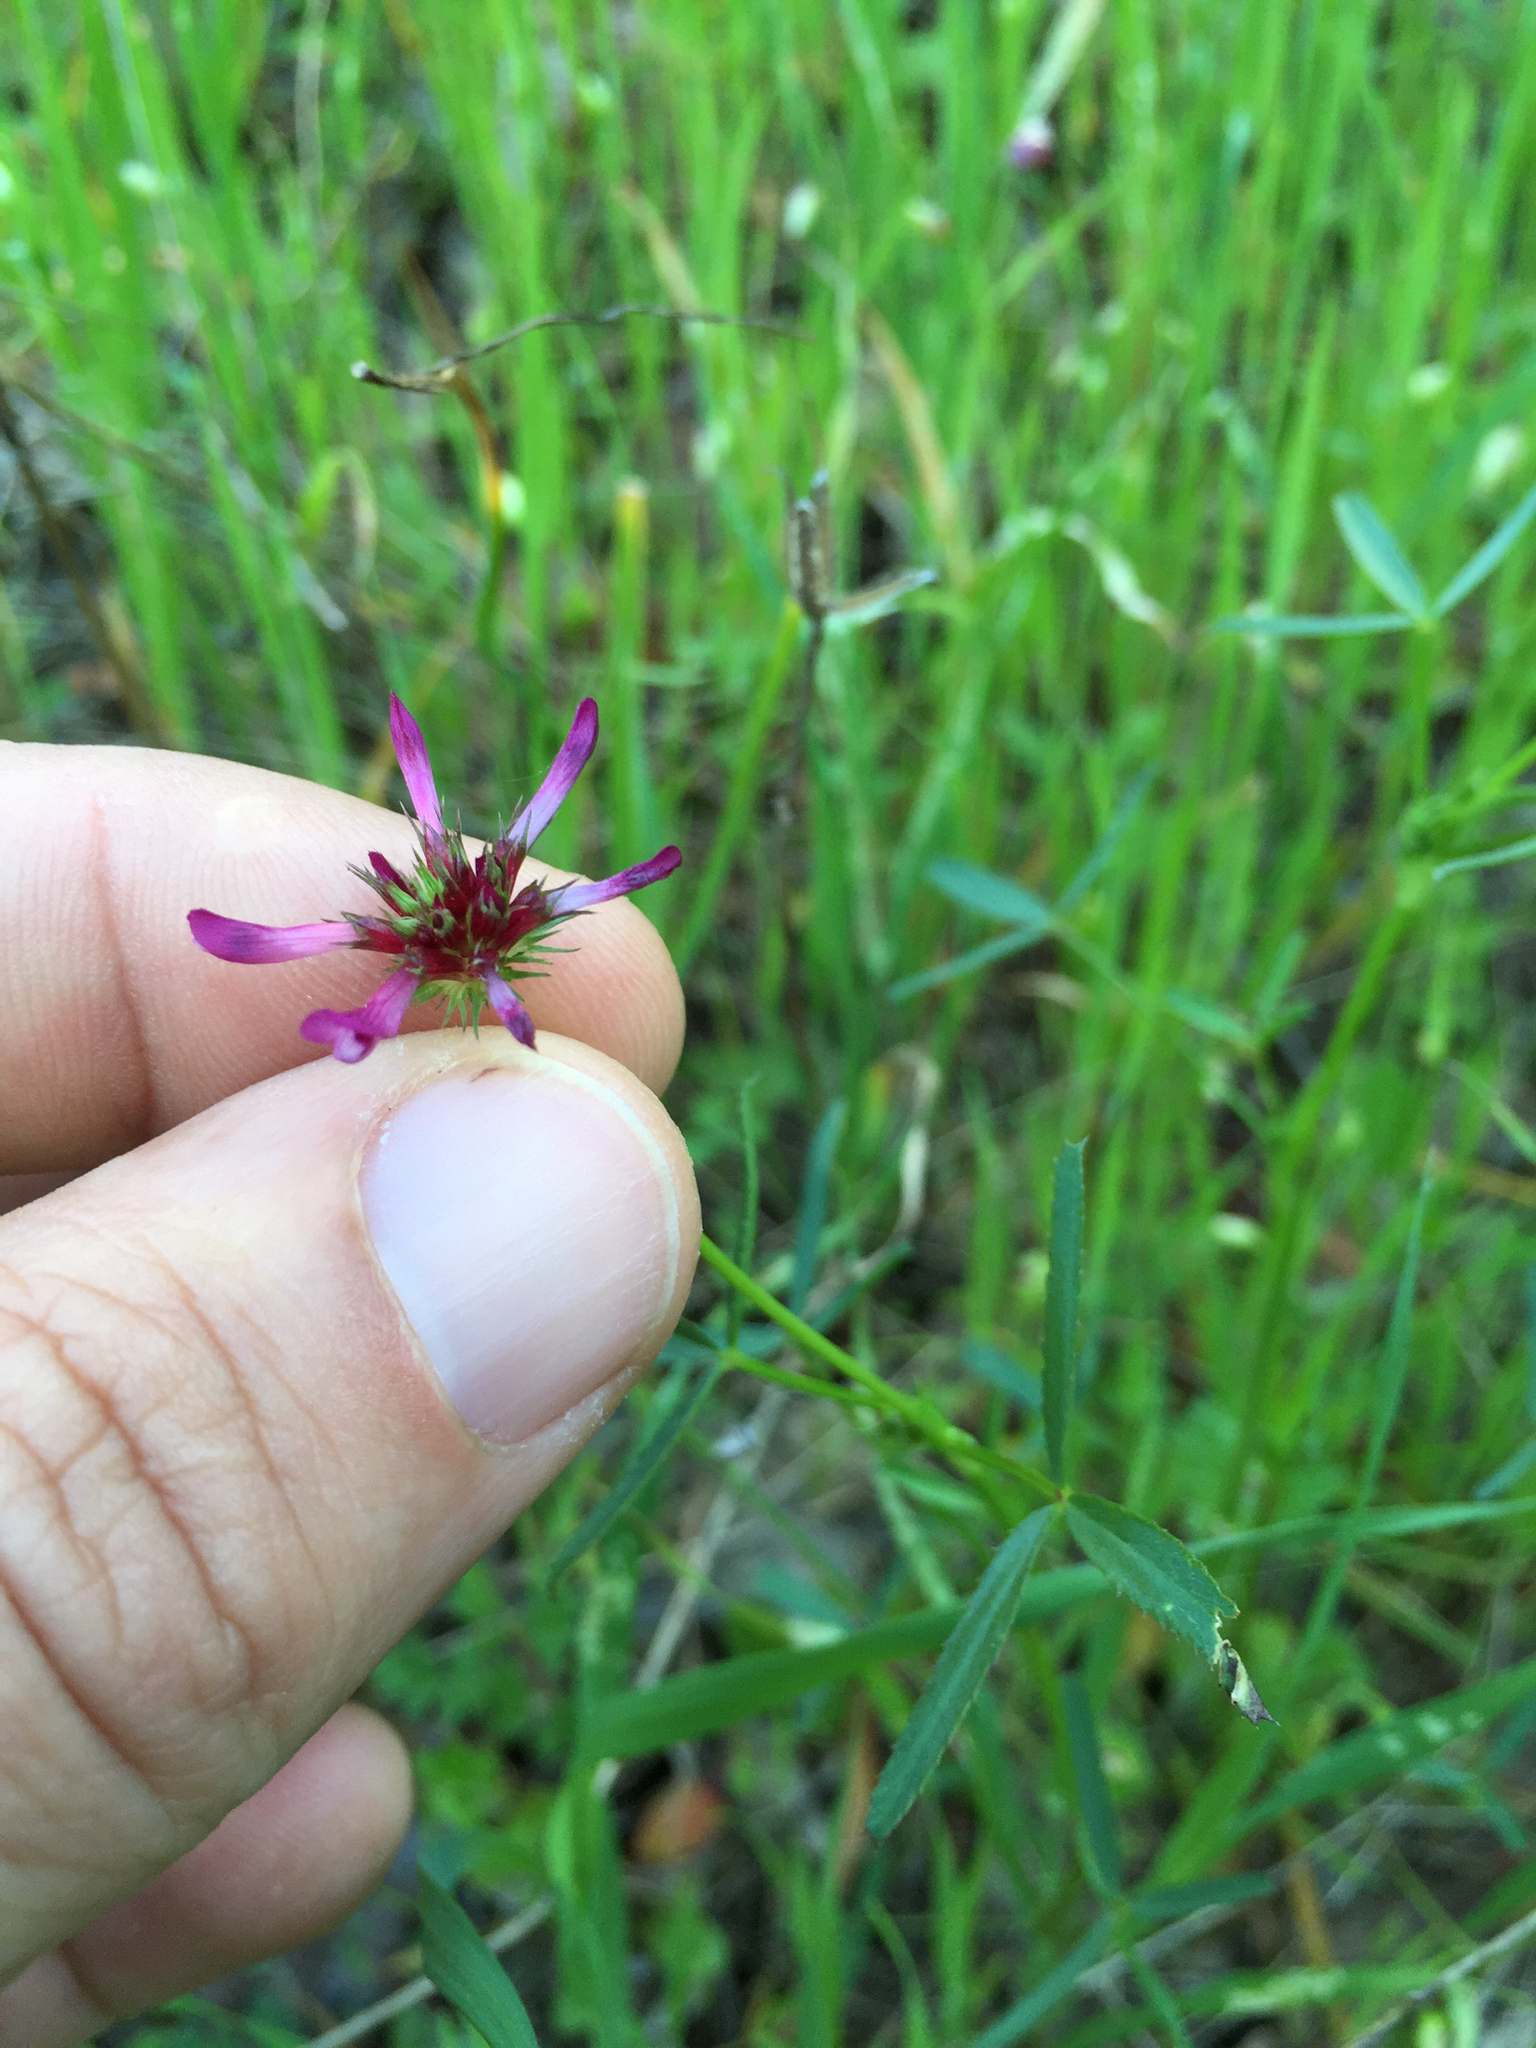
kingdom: Plantae
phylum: Tracheophyta
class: Magnoliopsida
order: Fabales
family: Fabaceae
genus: Trifolium
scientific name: Trifolium willdenovii
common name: Tomcat clover
